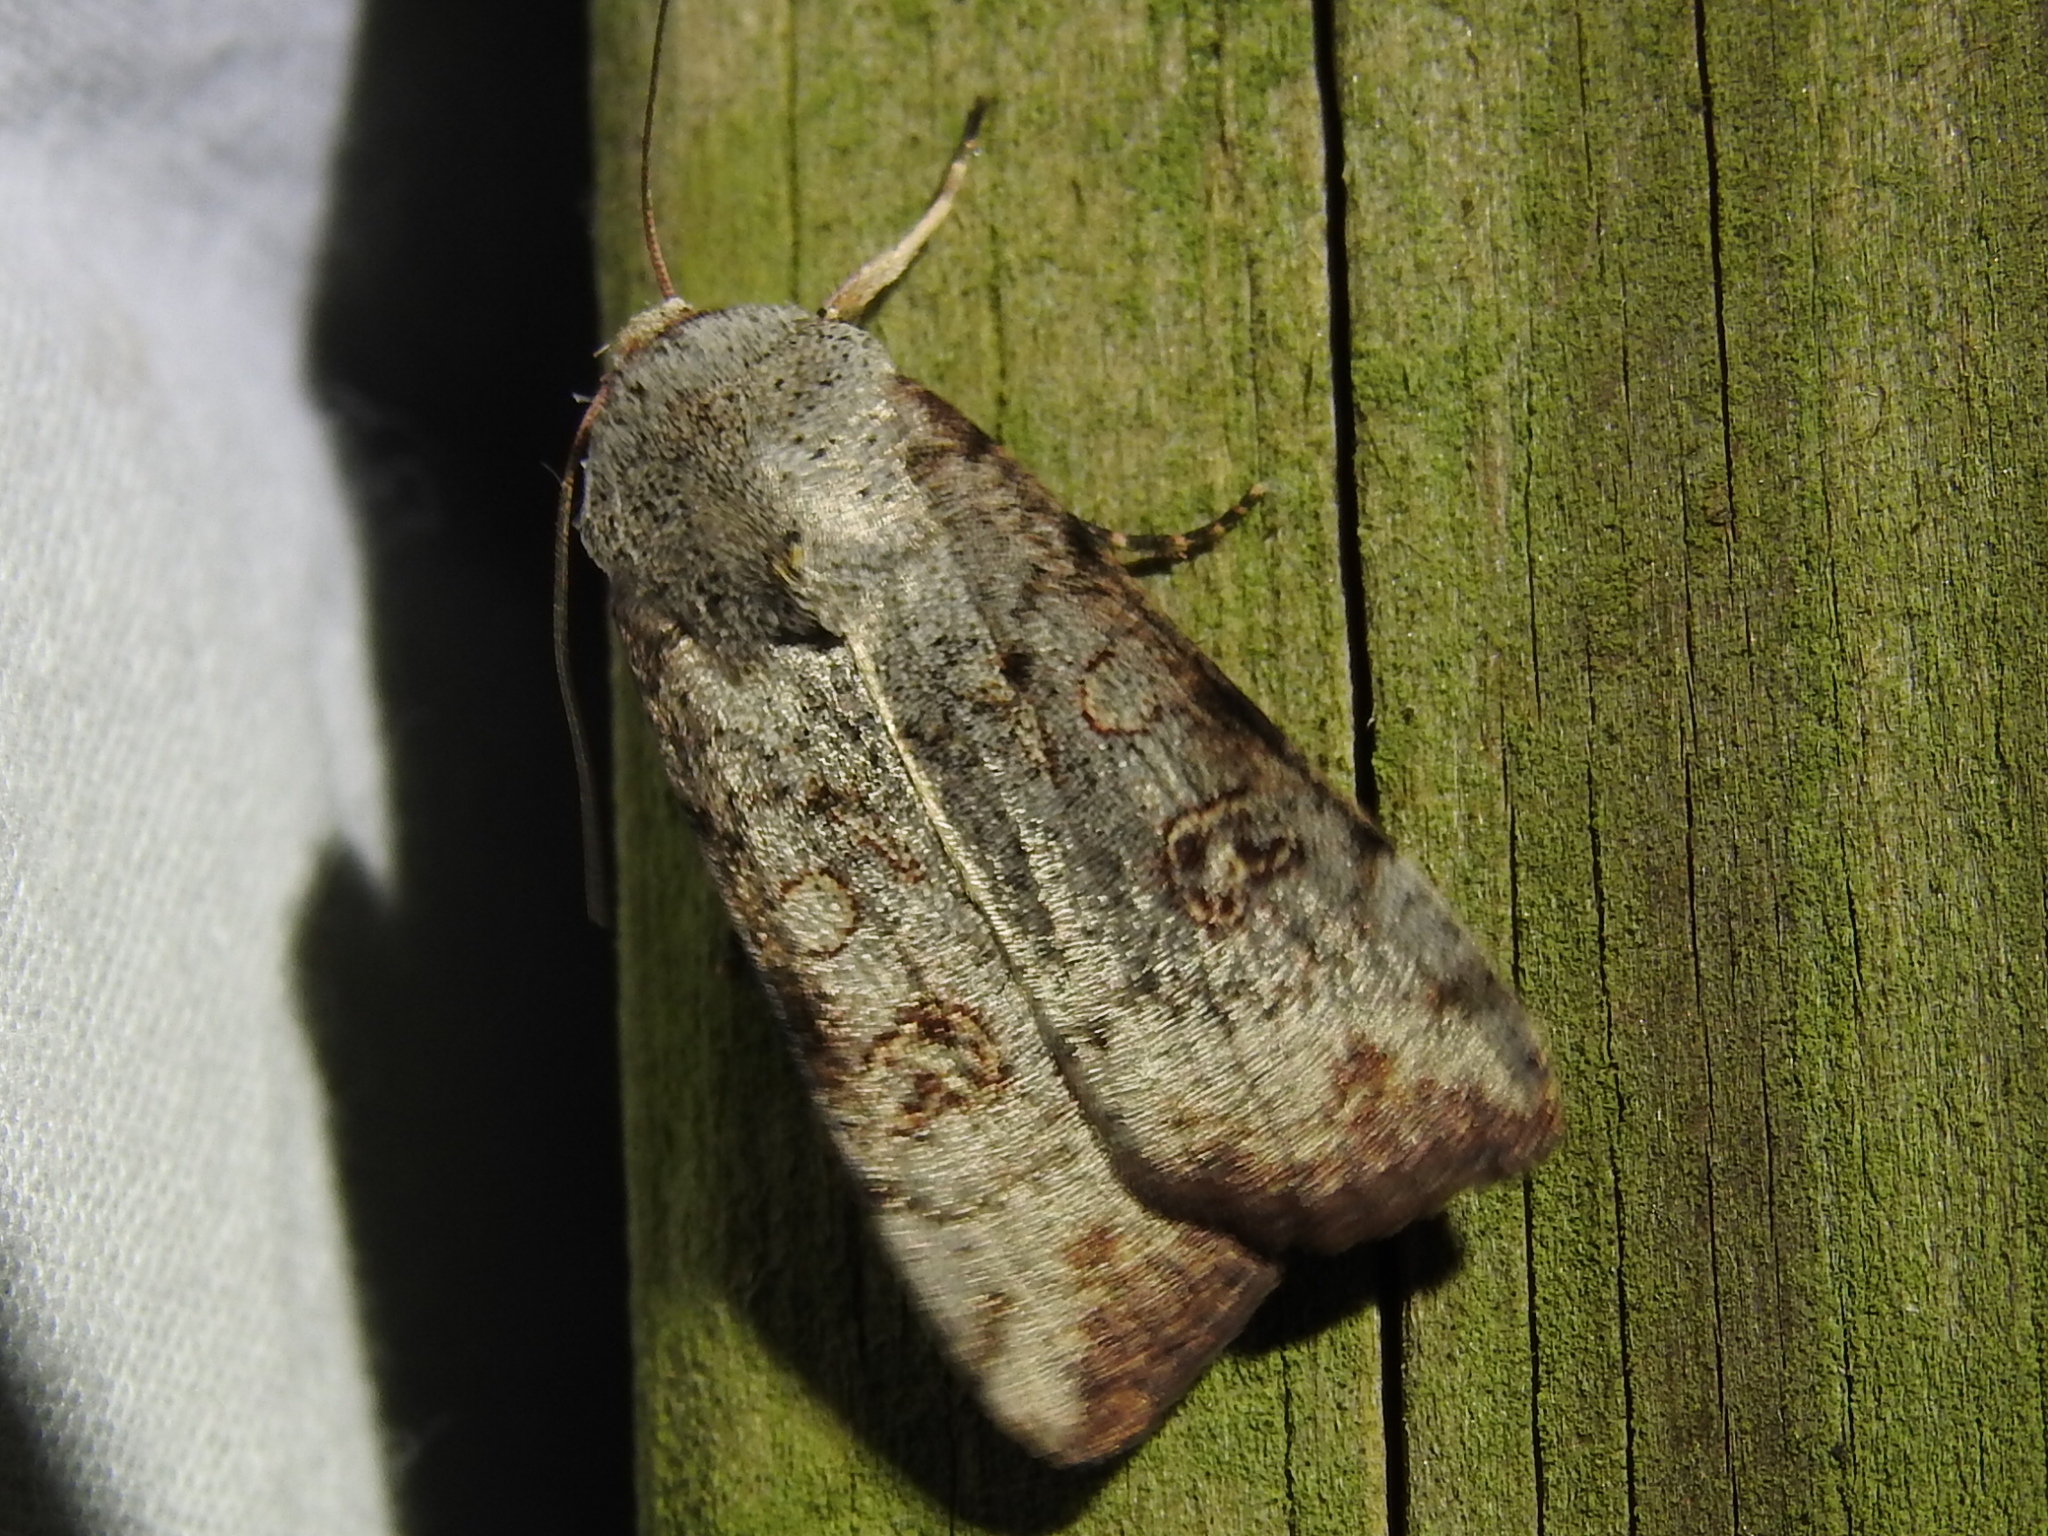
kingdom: Animalia
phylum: Arthropoda
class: Insecta
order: Lepidoptera
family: Noctuidae
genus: Anicla
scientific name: Anicla infecta
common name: Green cutworm
